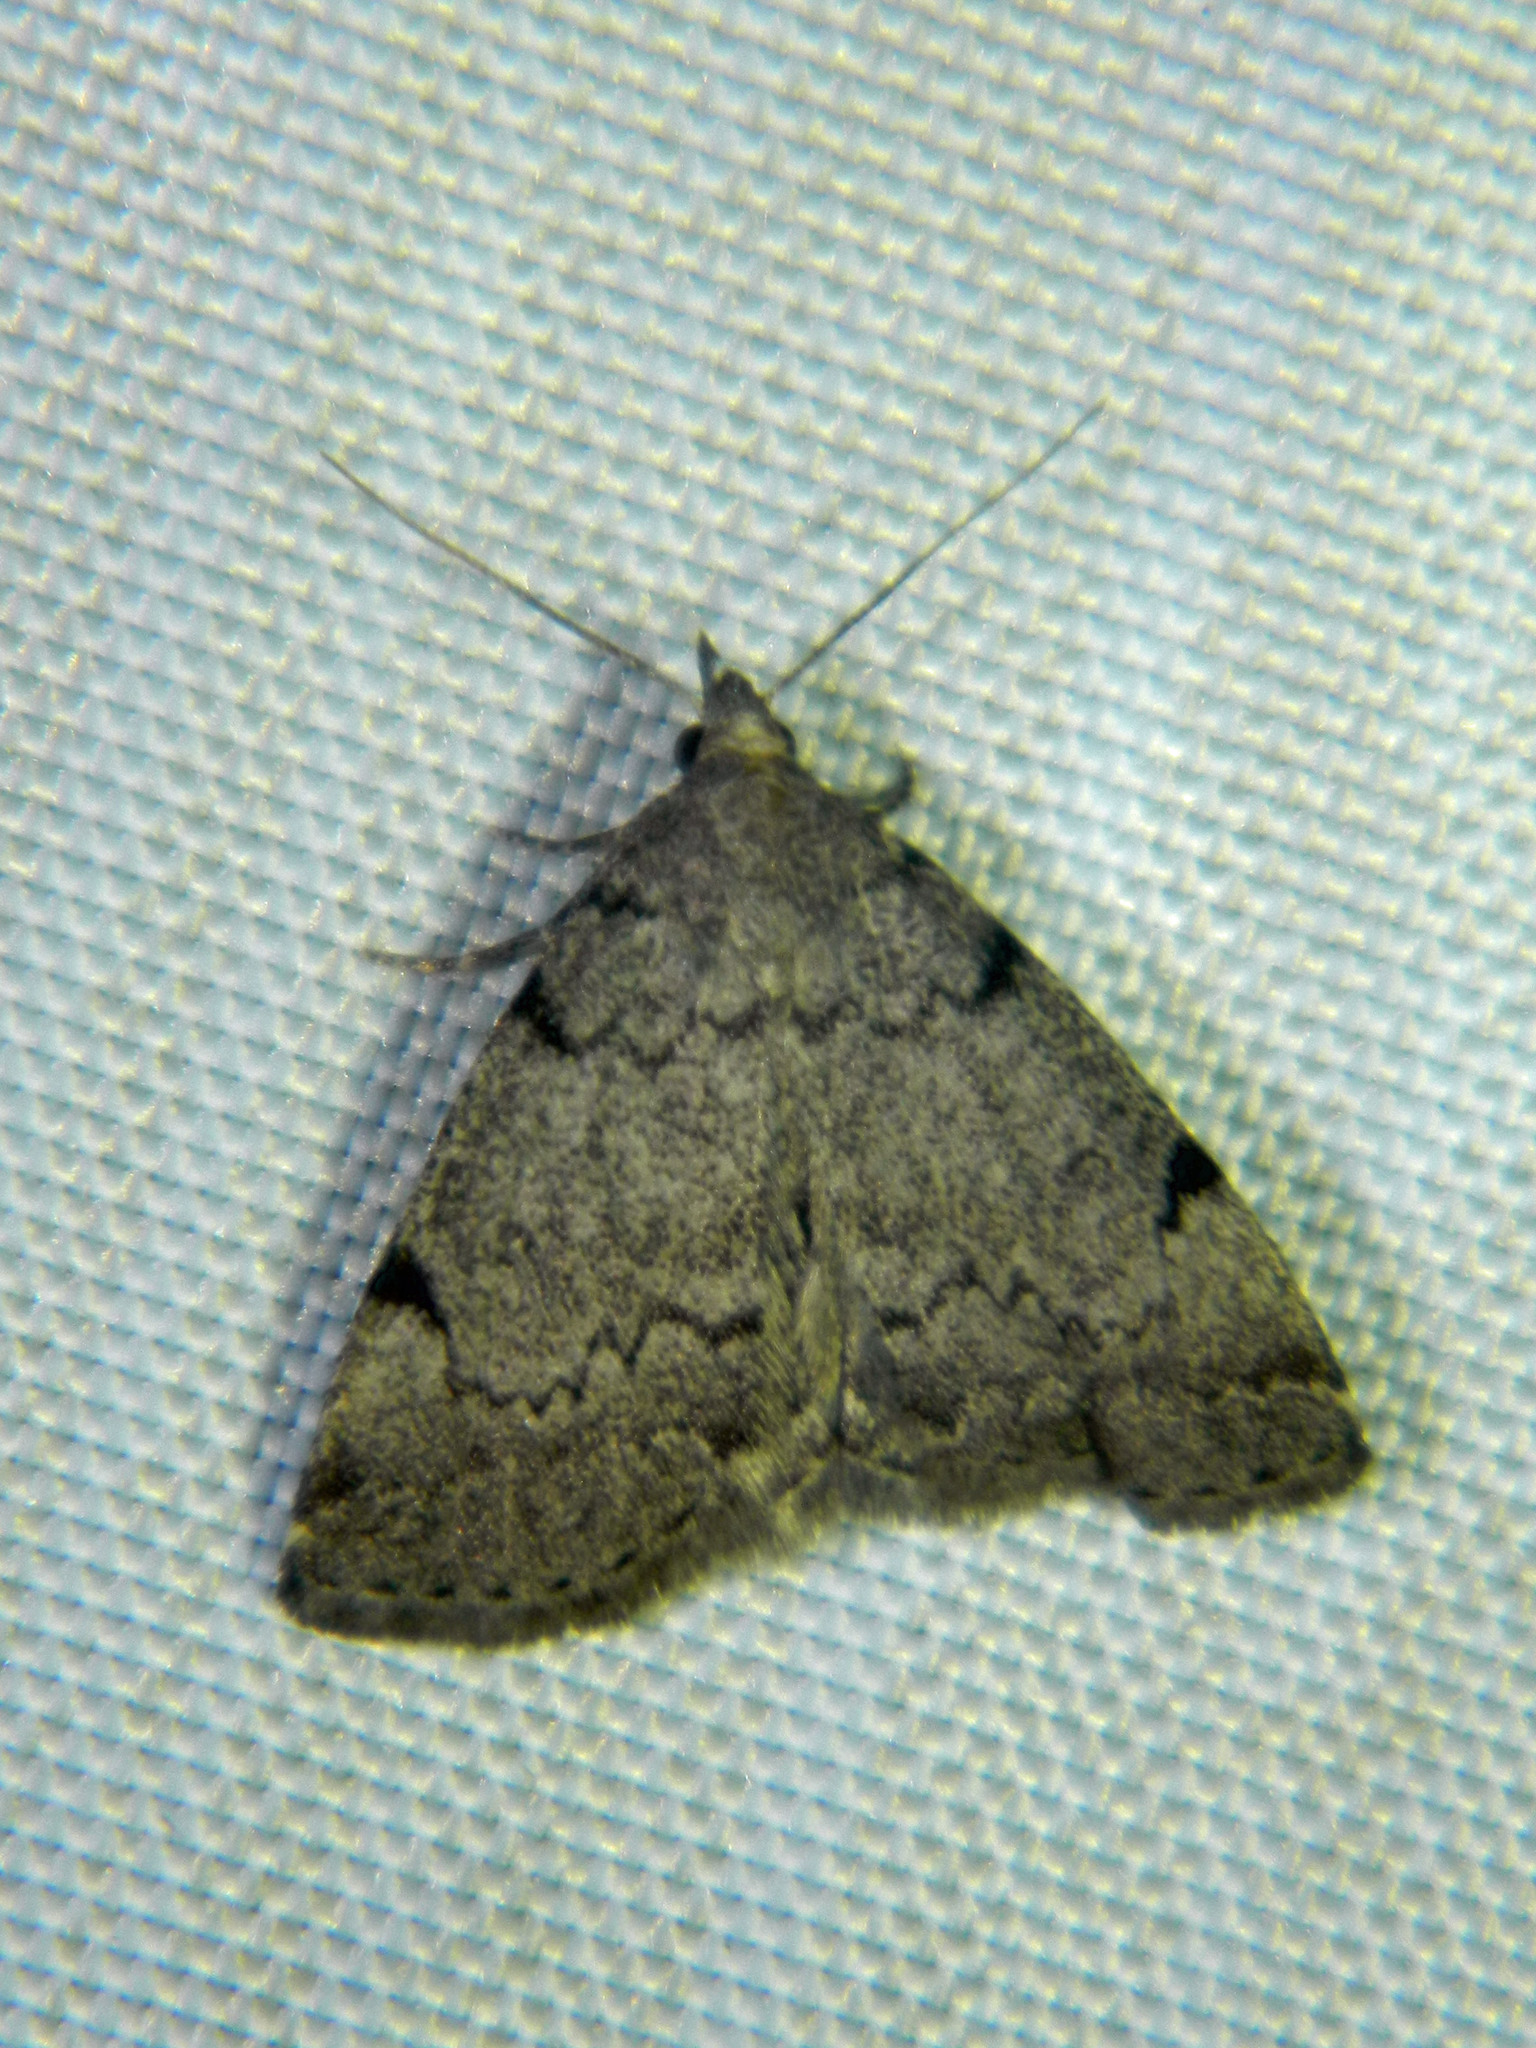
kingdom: Animalia
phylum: Arthropoda
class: Insecta
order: Lepidoptera
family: Erebidae
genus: Zanclognatha
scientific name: Zanclognatha theralis
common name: Flagged fan-foot
